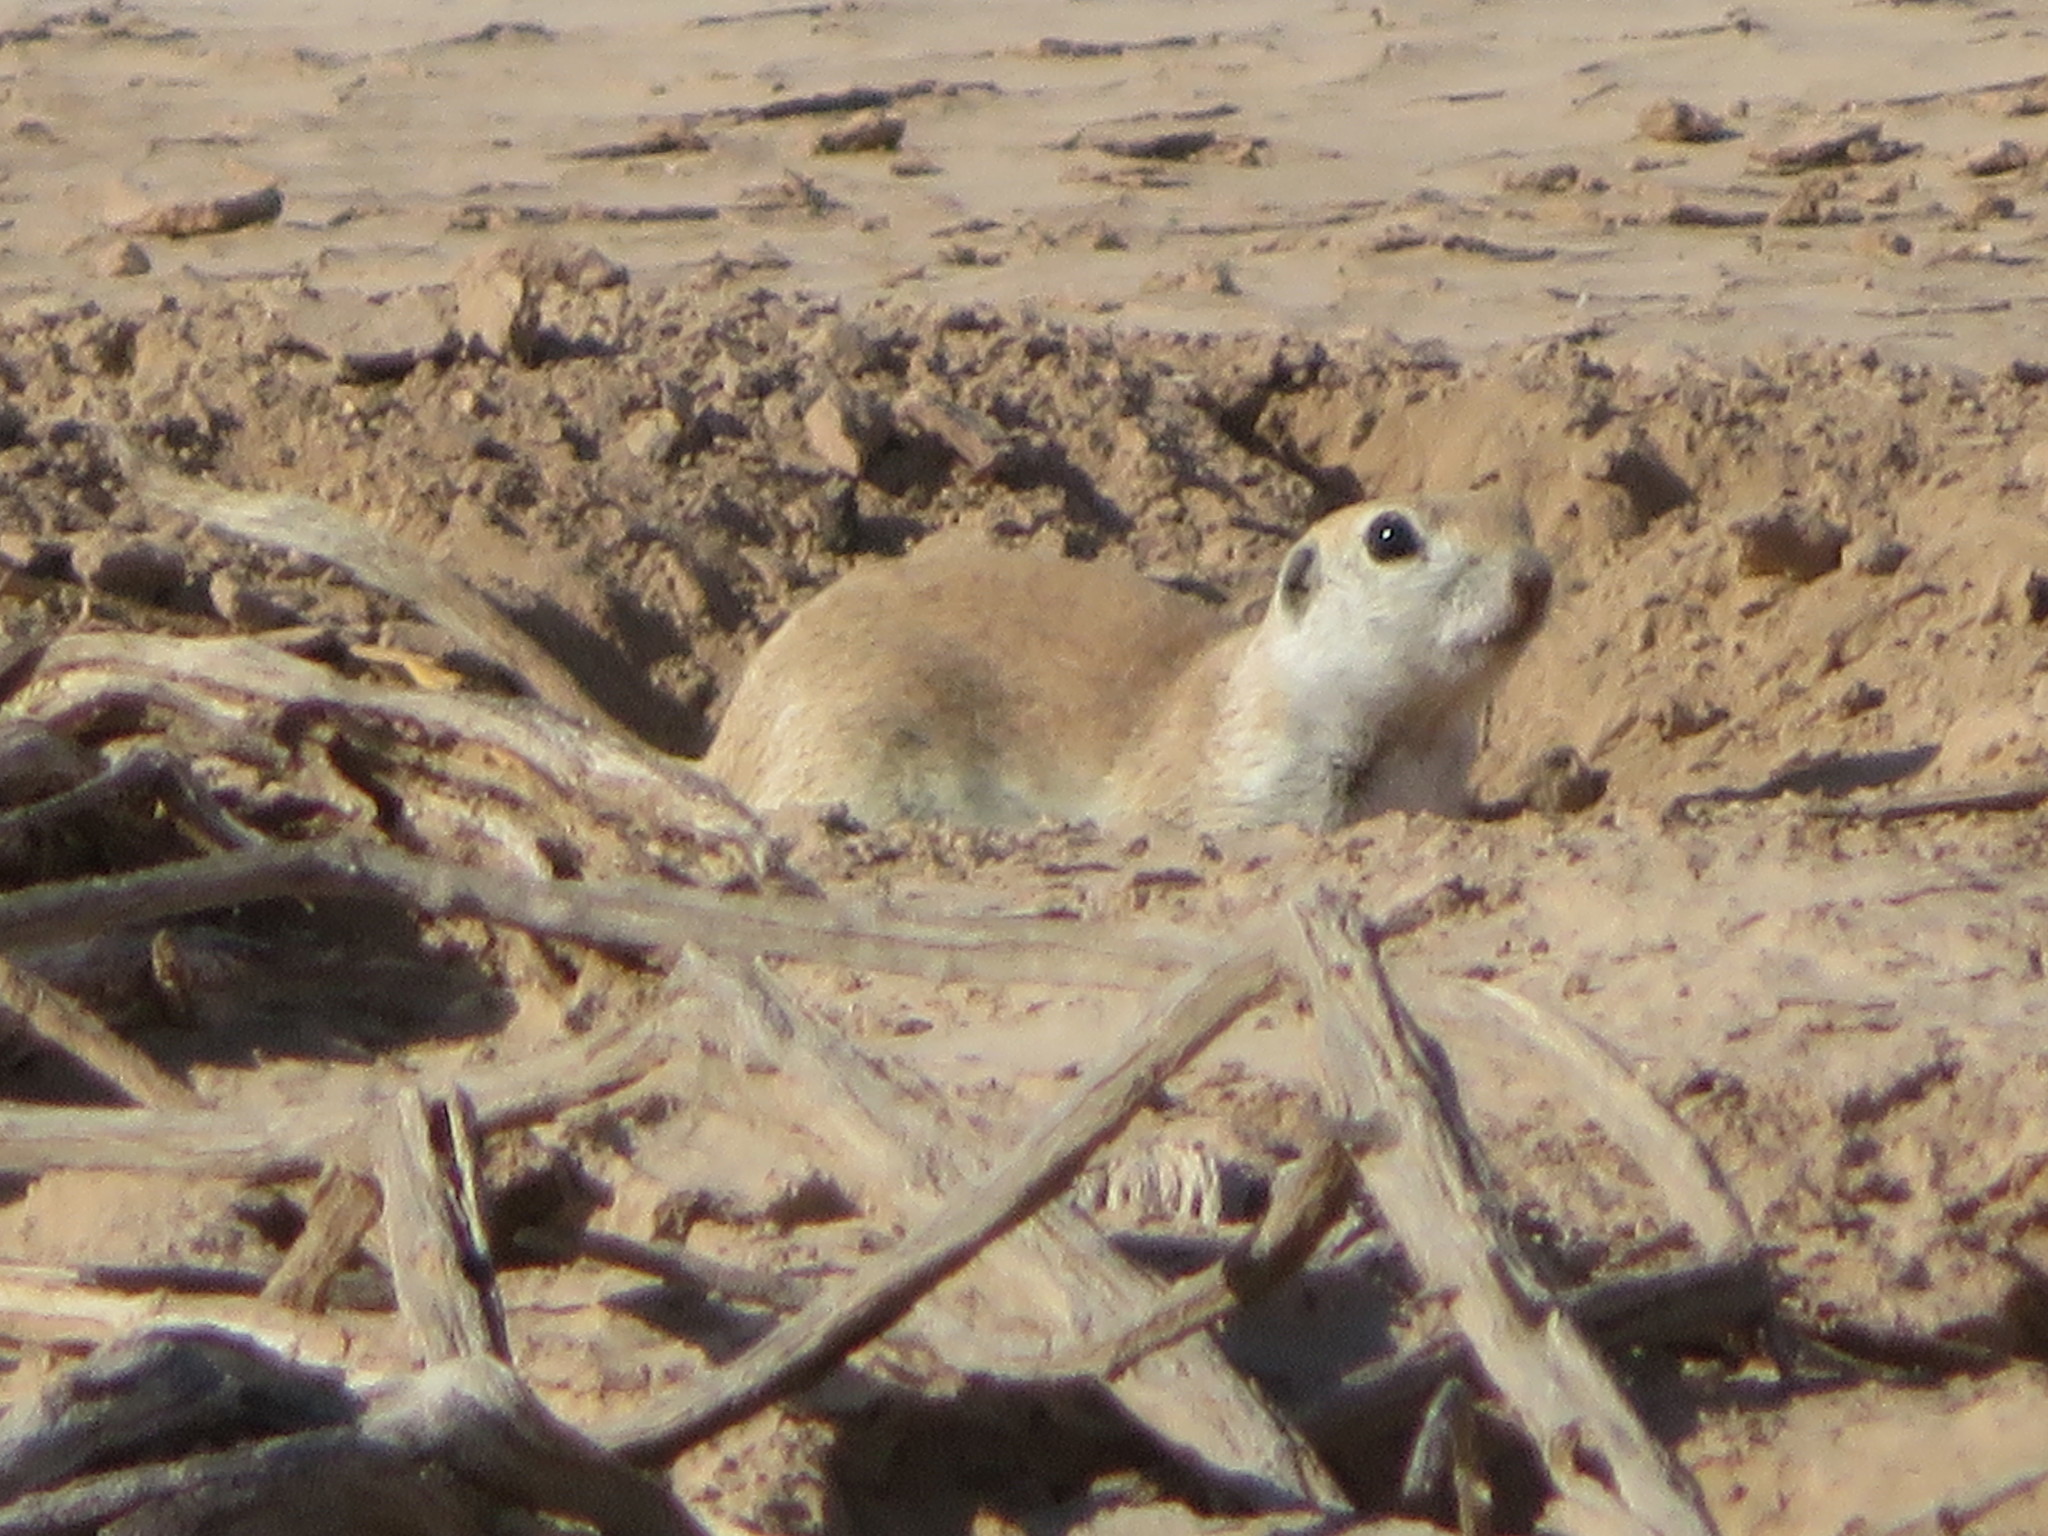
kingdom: Animalia
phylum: Chordata
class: Mammalia
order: Rodentia
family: Sciuridae
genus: Xerospermophilus
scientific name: Xerospermophilus tereticaudus
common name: Round-tailed ground squirrel
